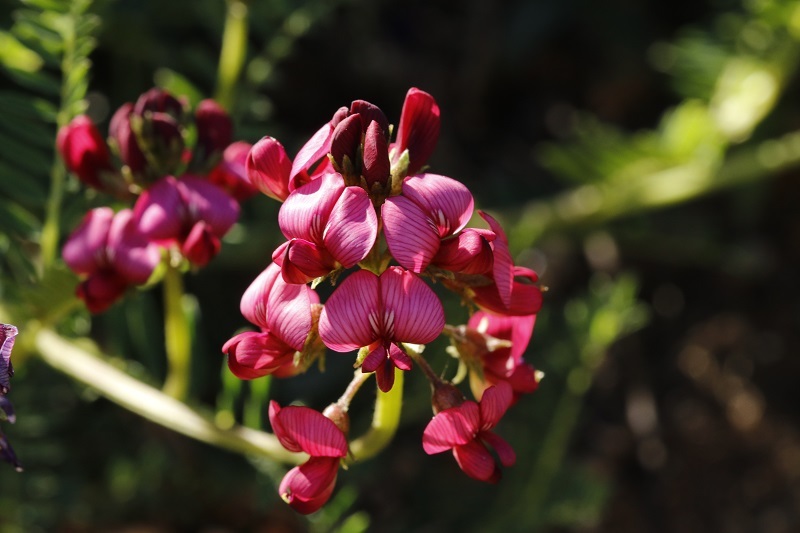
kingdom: Plantae
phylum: Tracheophyta
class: Magnoliopsida
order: Fabales
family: Fabaceae
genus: Lessertia
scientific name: Lessertia capensis
